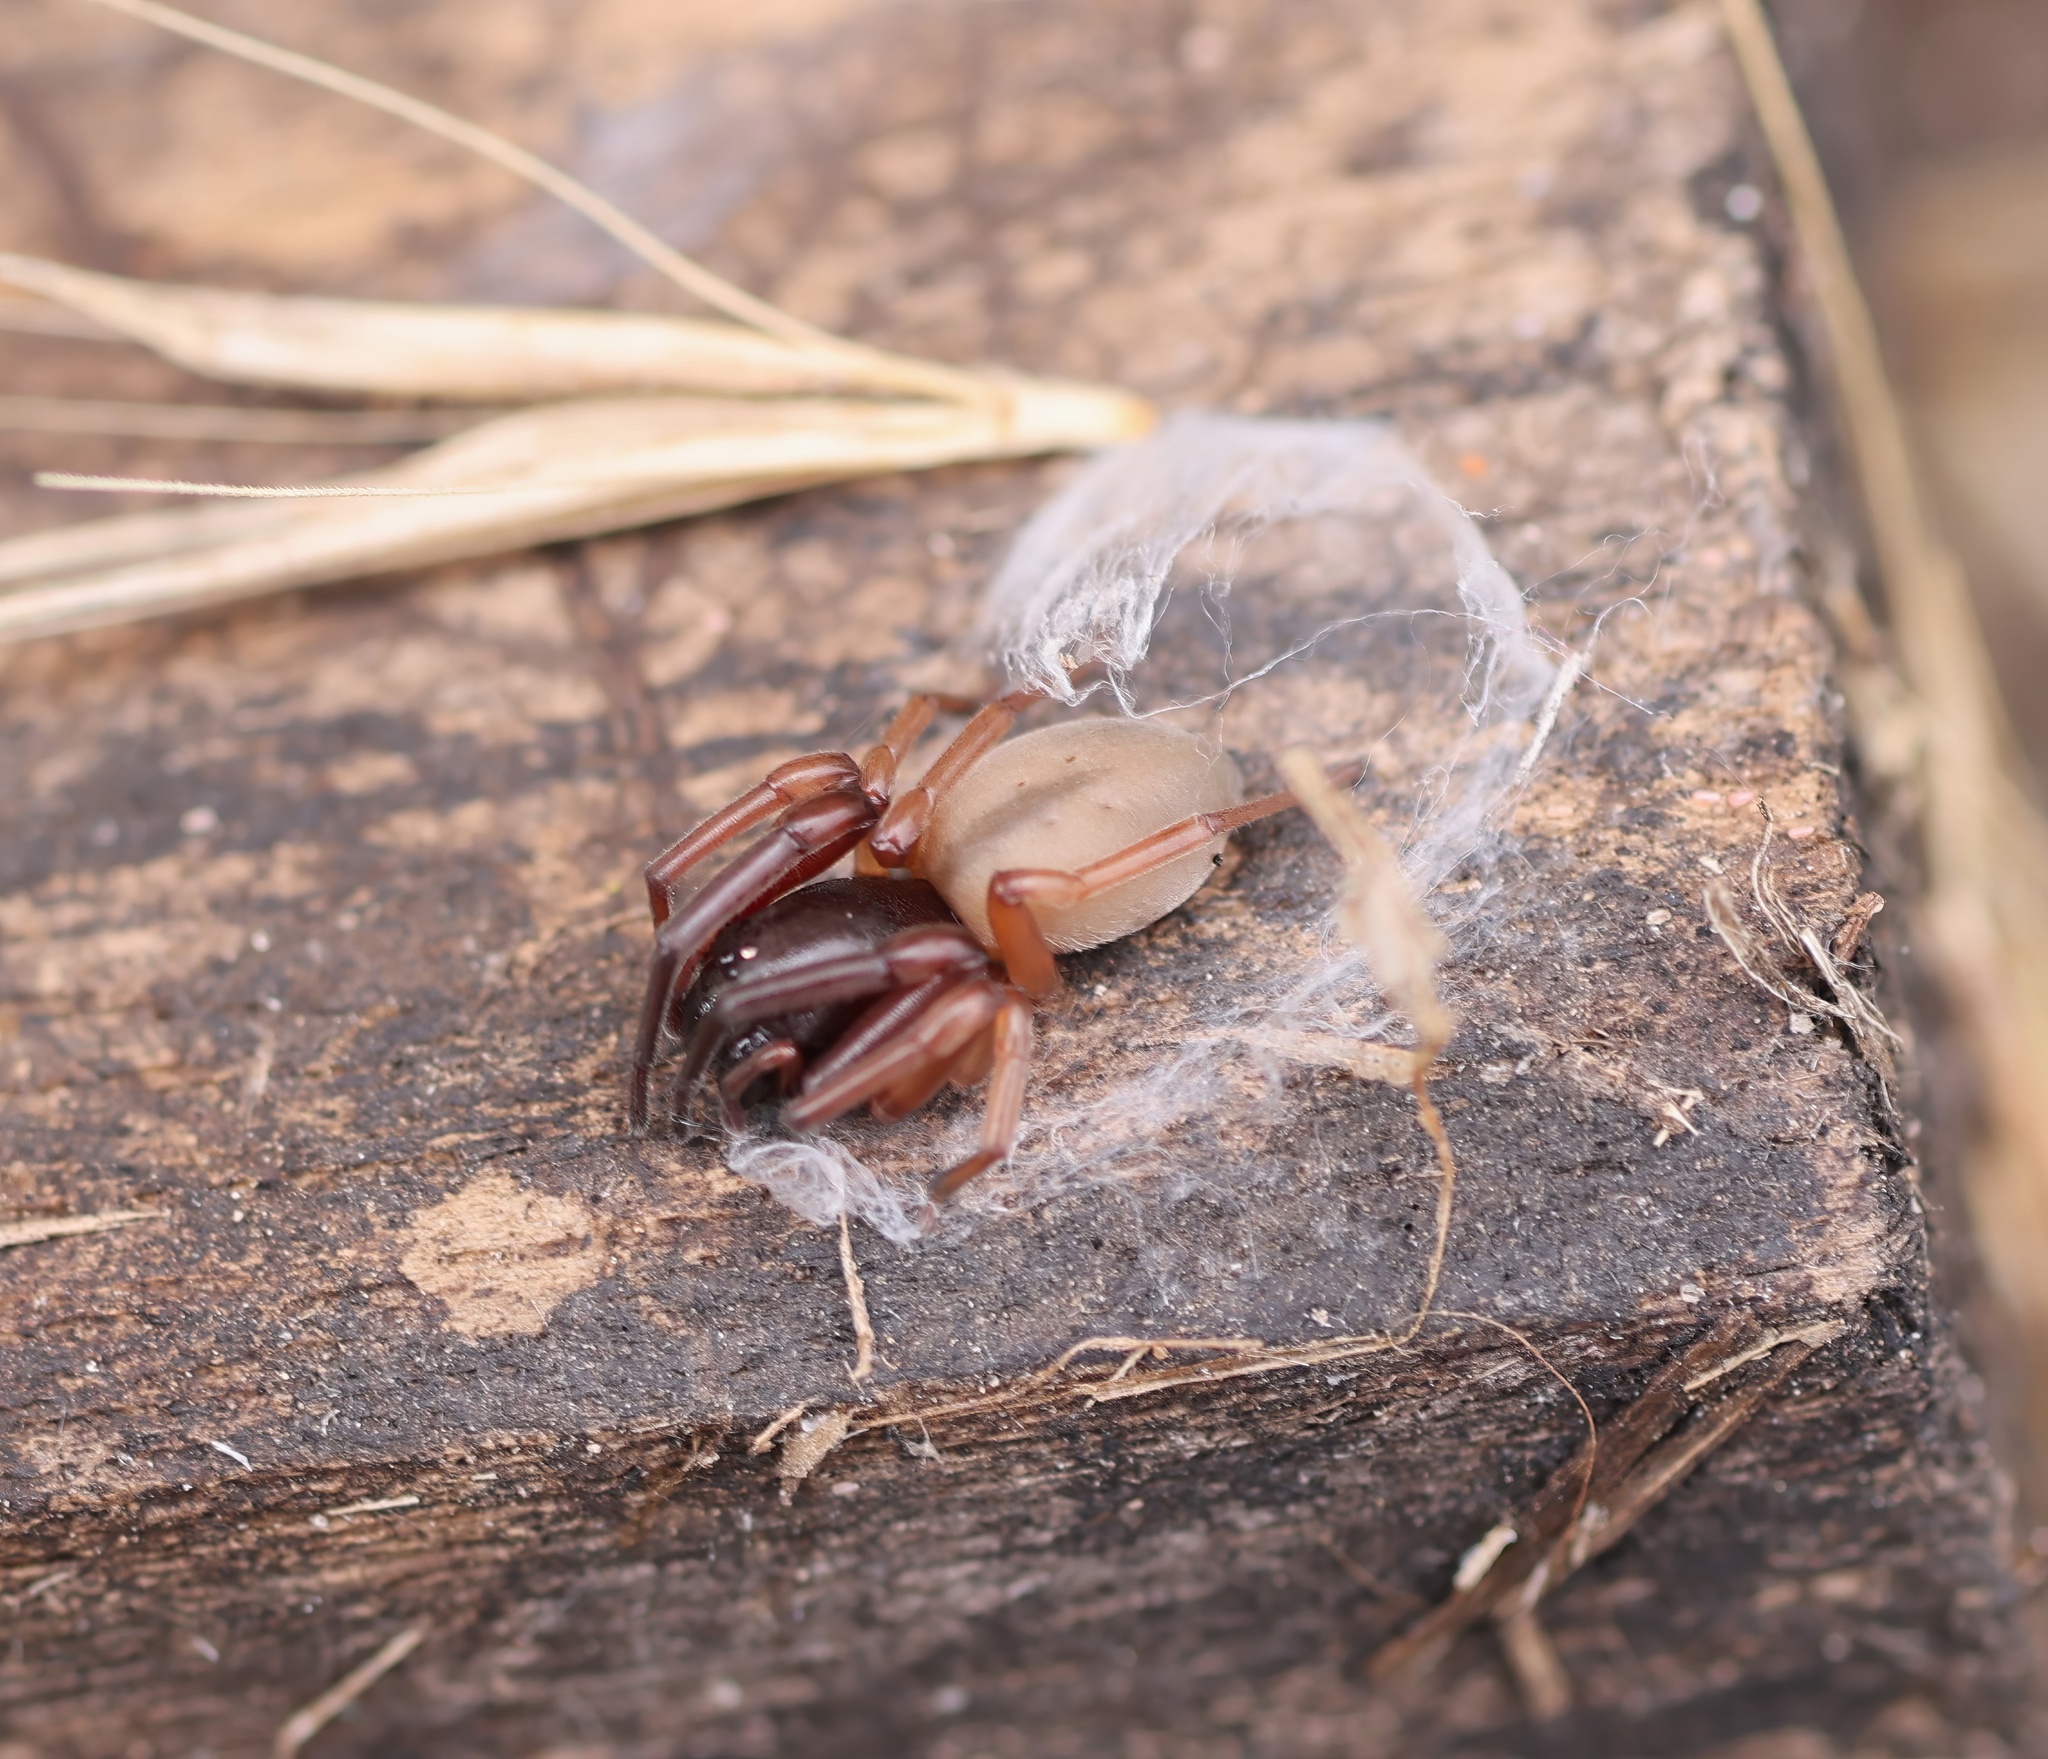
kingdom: Animalia
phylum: Arthropoda
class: Arachnida
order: Araneae
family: Trachelidae
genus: Trachelas
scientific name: Trachelas pacificus
